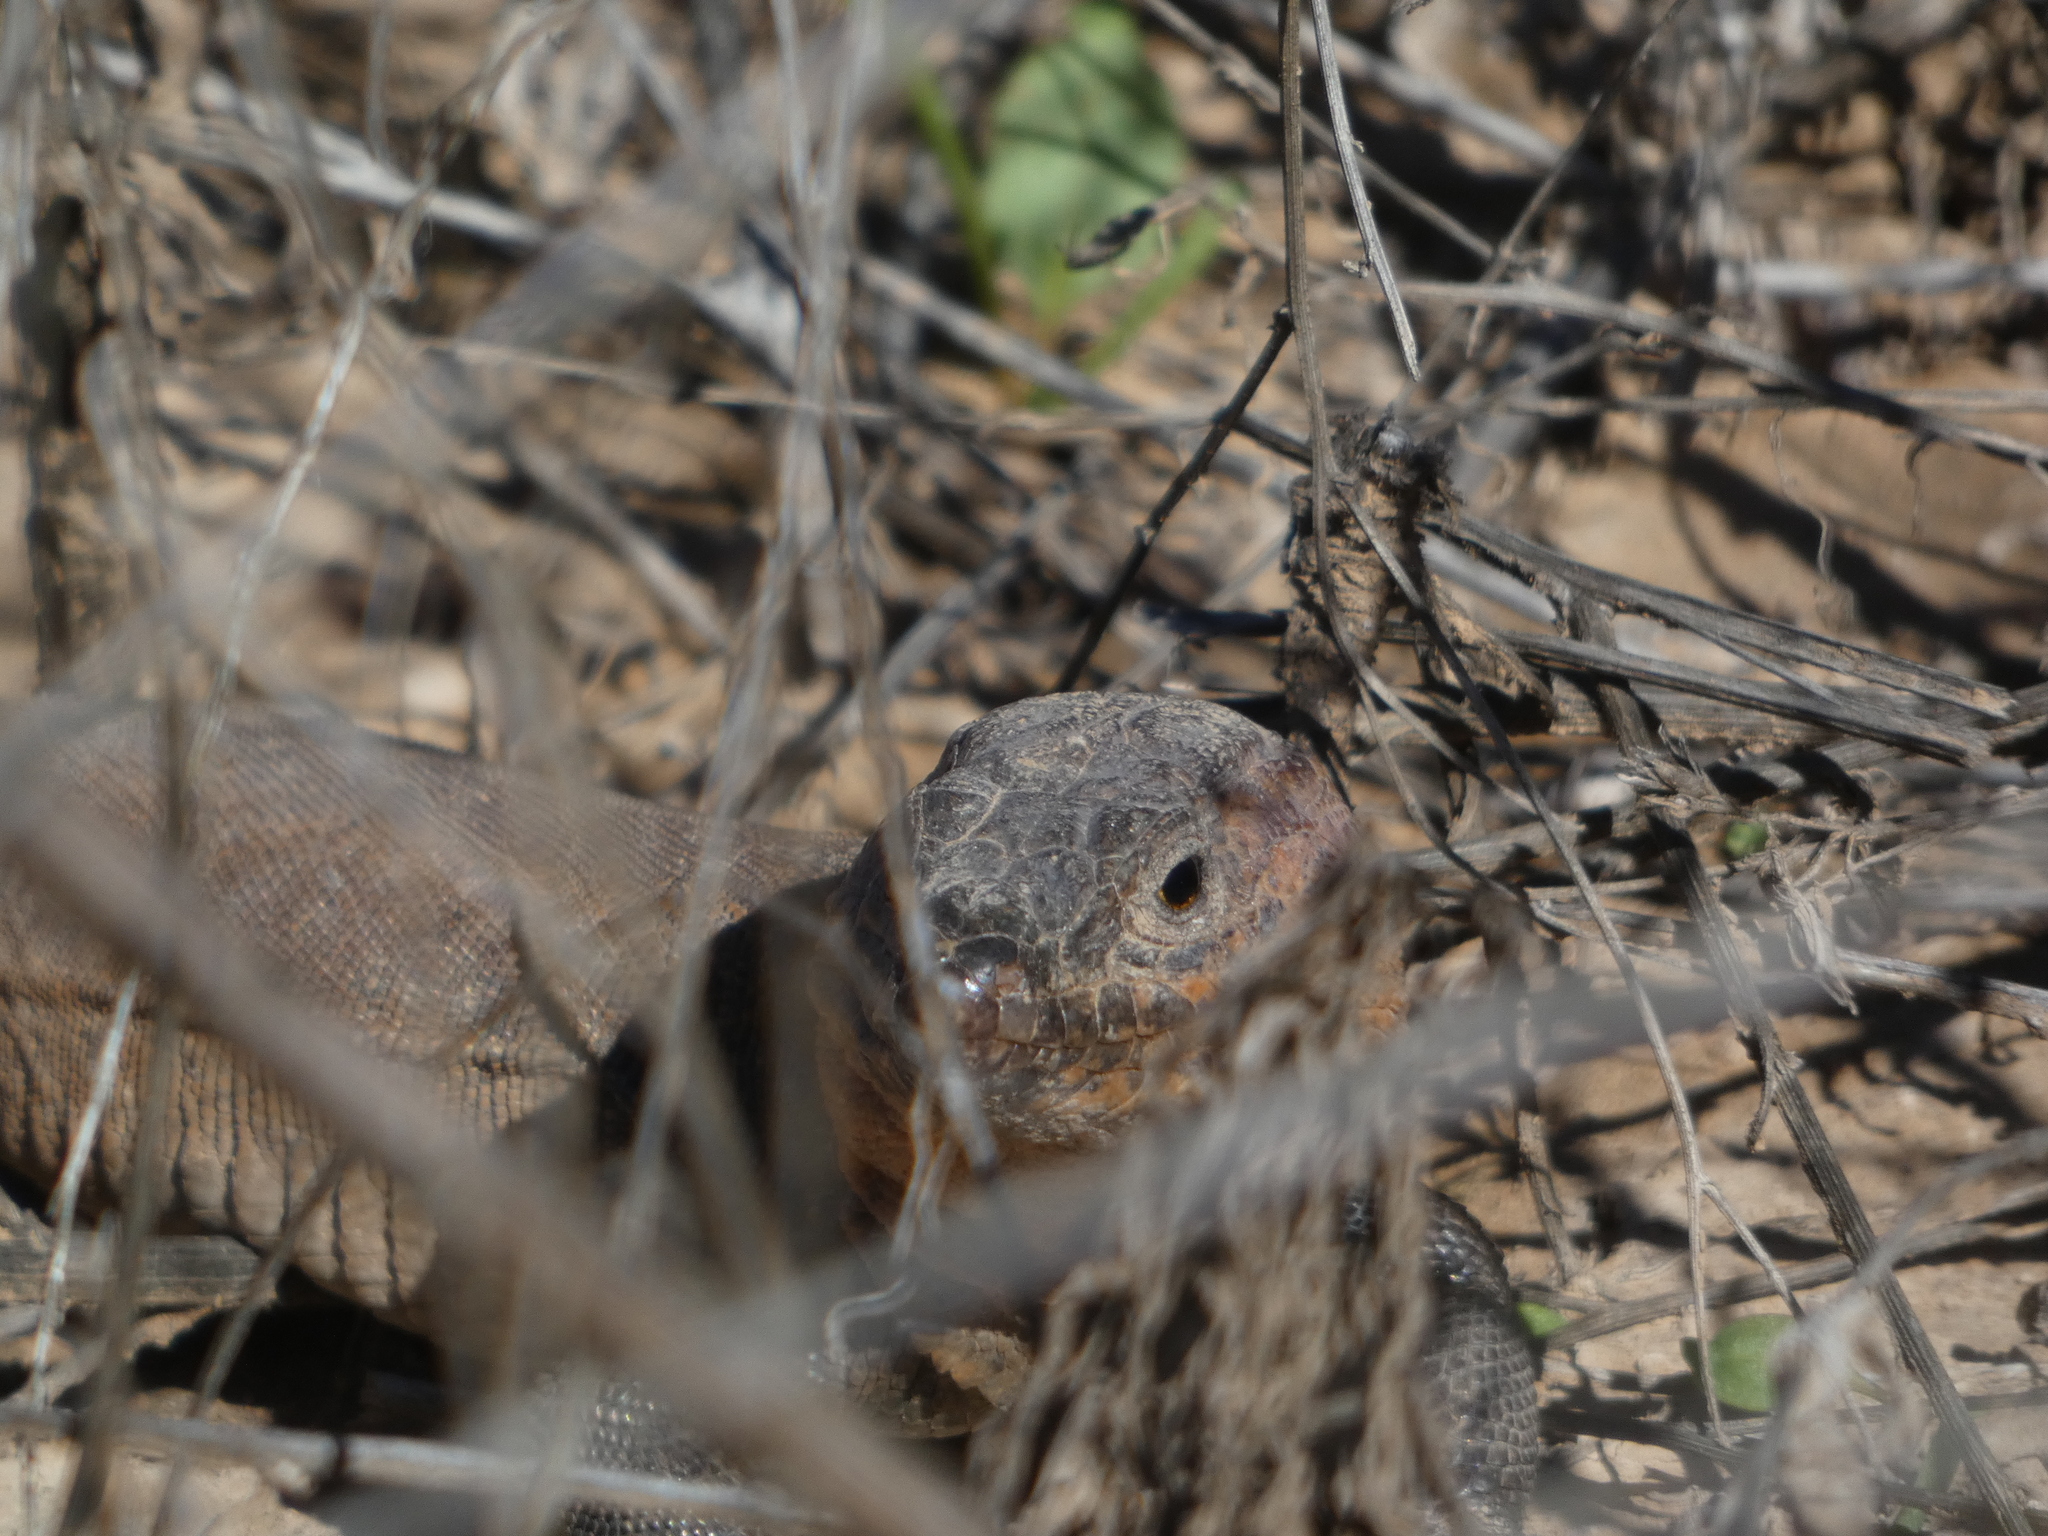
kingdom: Animalia
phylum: Chordata
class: Squamata
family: Lacertidae
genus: Gallotia
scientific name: Gallotia stehlini
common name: Gran canaria giant lizard
